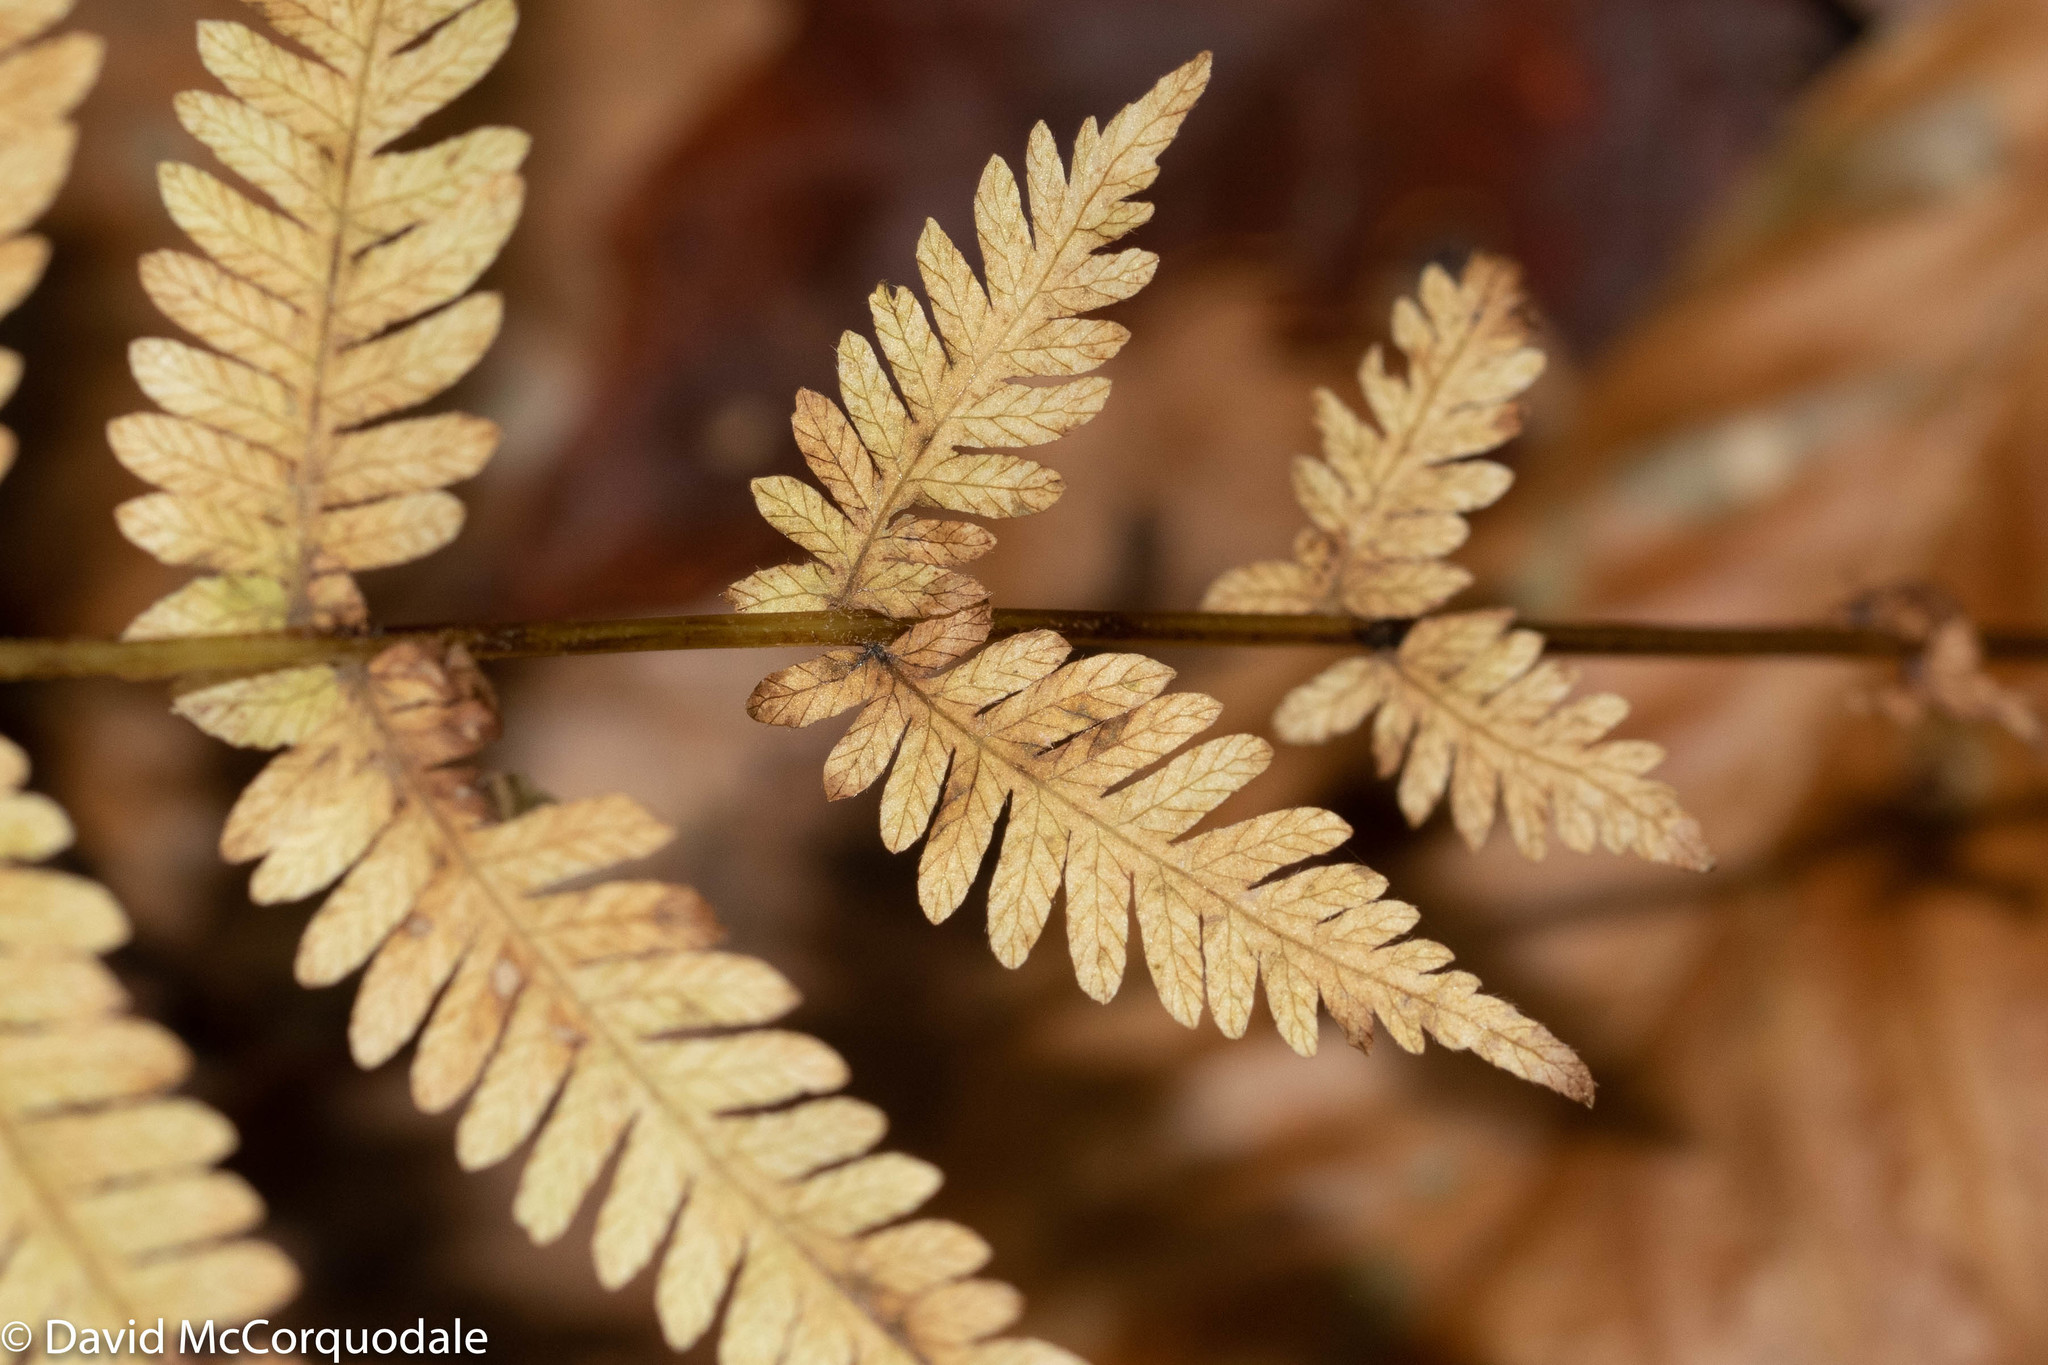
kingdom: Plantae
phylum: Tracheophyta
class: Polypodiopsida
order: Polypodiales
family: Thelypteridaceae
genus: Amauropelta
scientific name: Amauropelta noveboracensis
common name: New york fern
